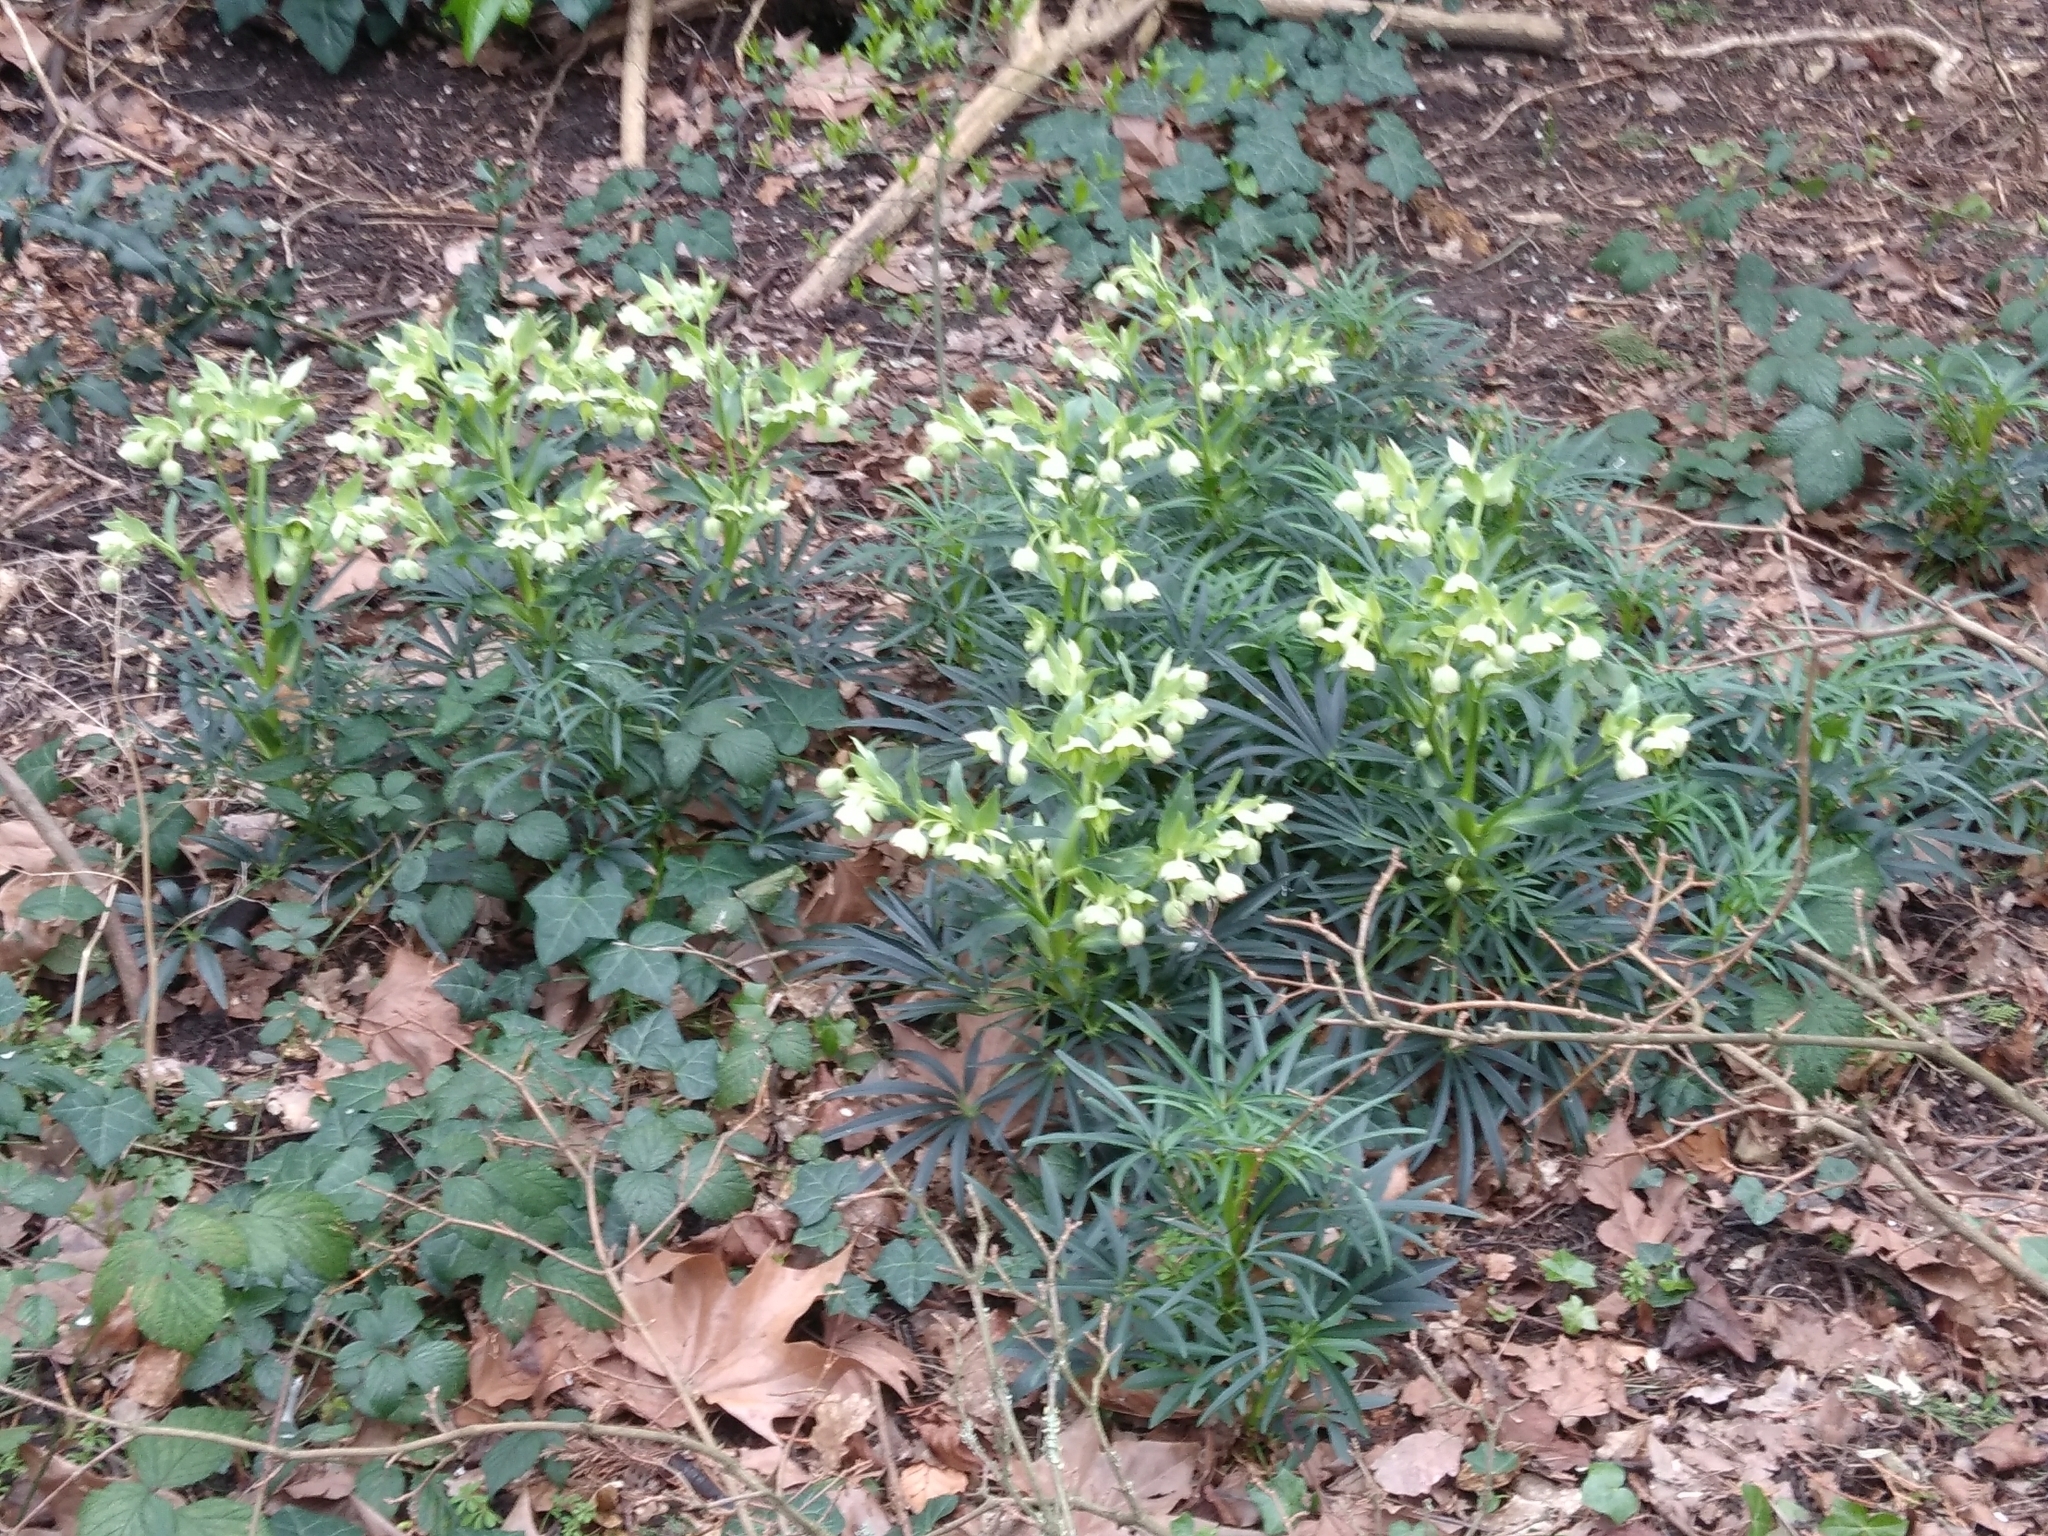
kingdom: Plantae
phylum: Tracheophyta
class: Magnoliopsida
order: Ranunculales
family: Ranunculaceae
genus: Helleborus
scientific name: Helleborus foetidus
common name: Stinking hellebore
